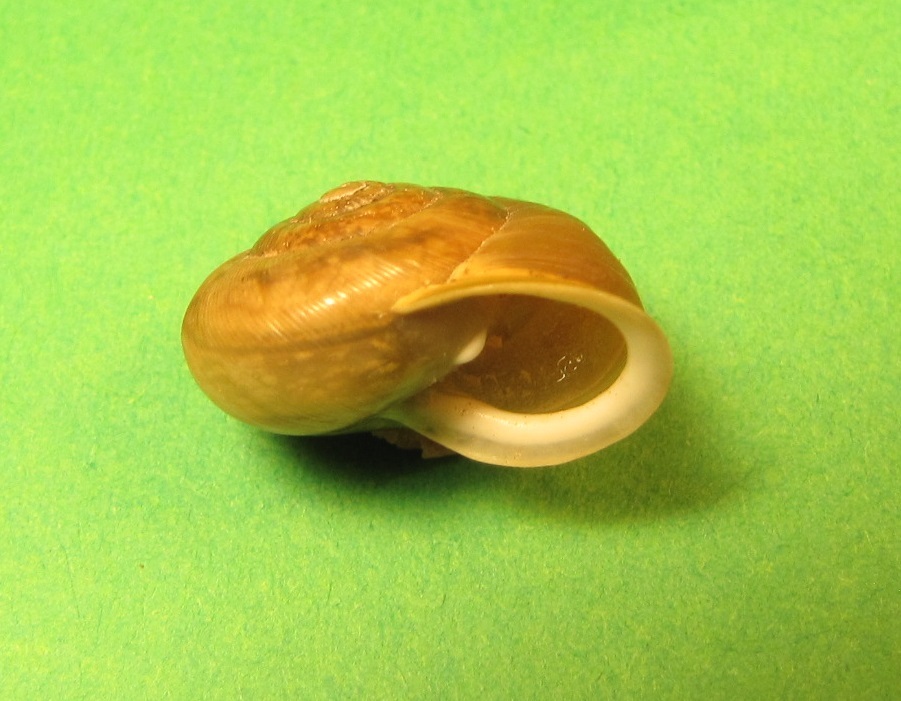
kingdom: Animalia
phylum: Mollusca
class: Gastropoda
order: Stylommatophora
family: Polygyridae
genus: Mesodon
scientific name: Mesodon thyroidus
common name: White-lip globe
